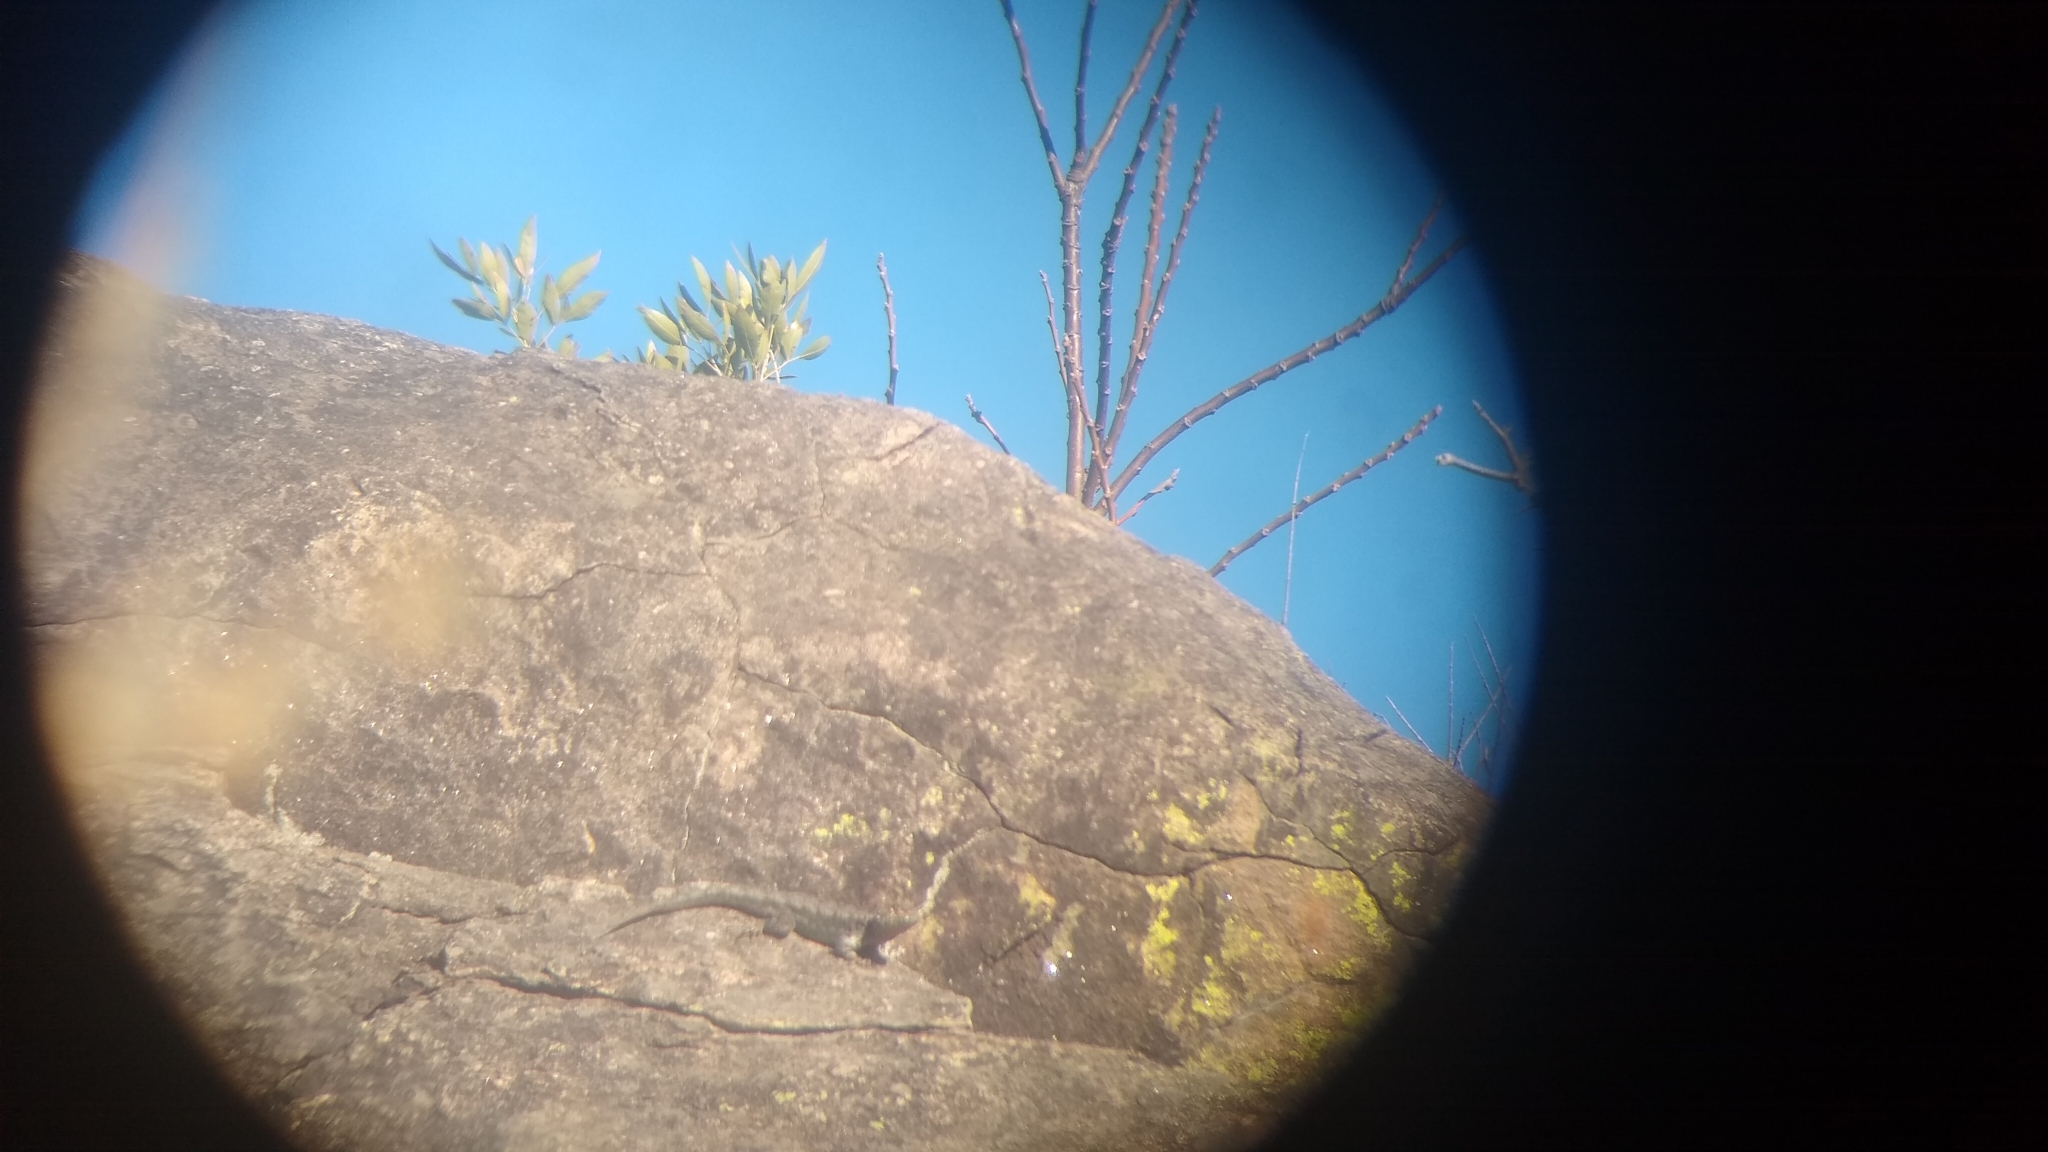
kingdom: Animalia
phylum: Chordata
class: Squamata
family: Tropiduridae
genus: Tropidurus
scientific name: Tropidurus spinulosus
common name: Spiny lava lizard
